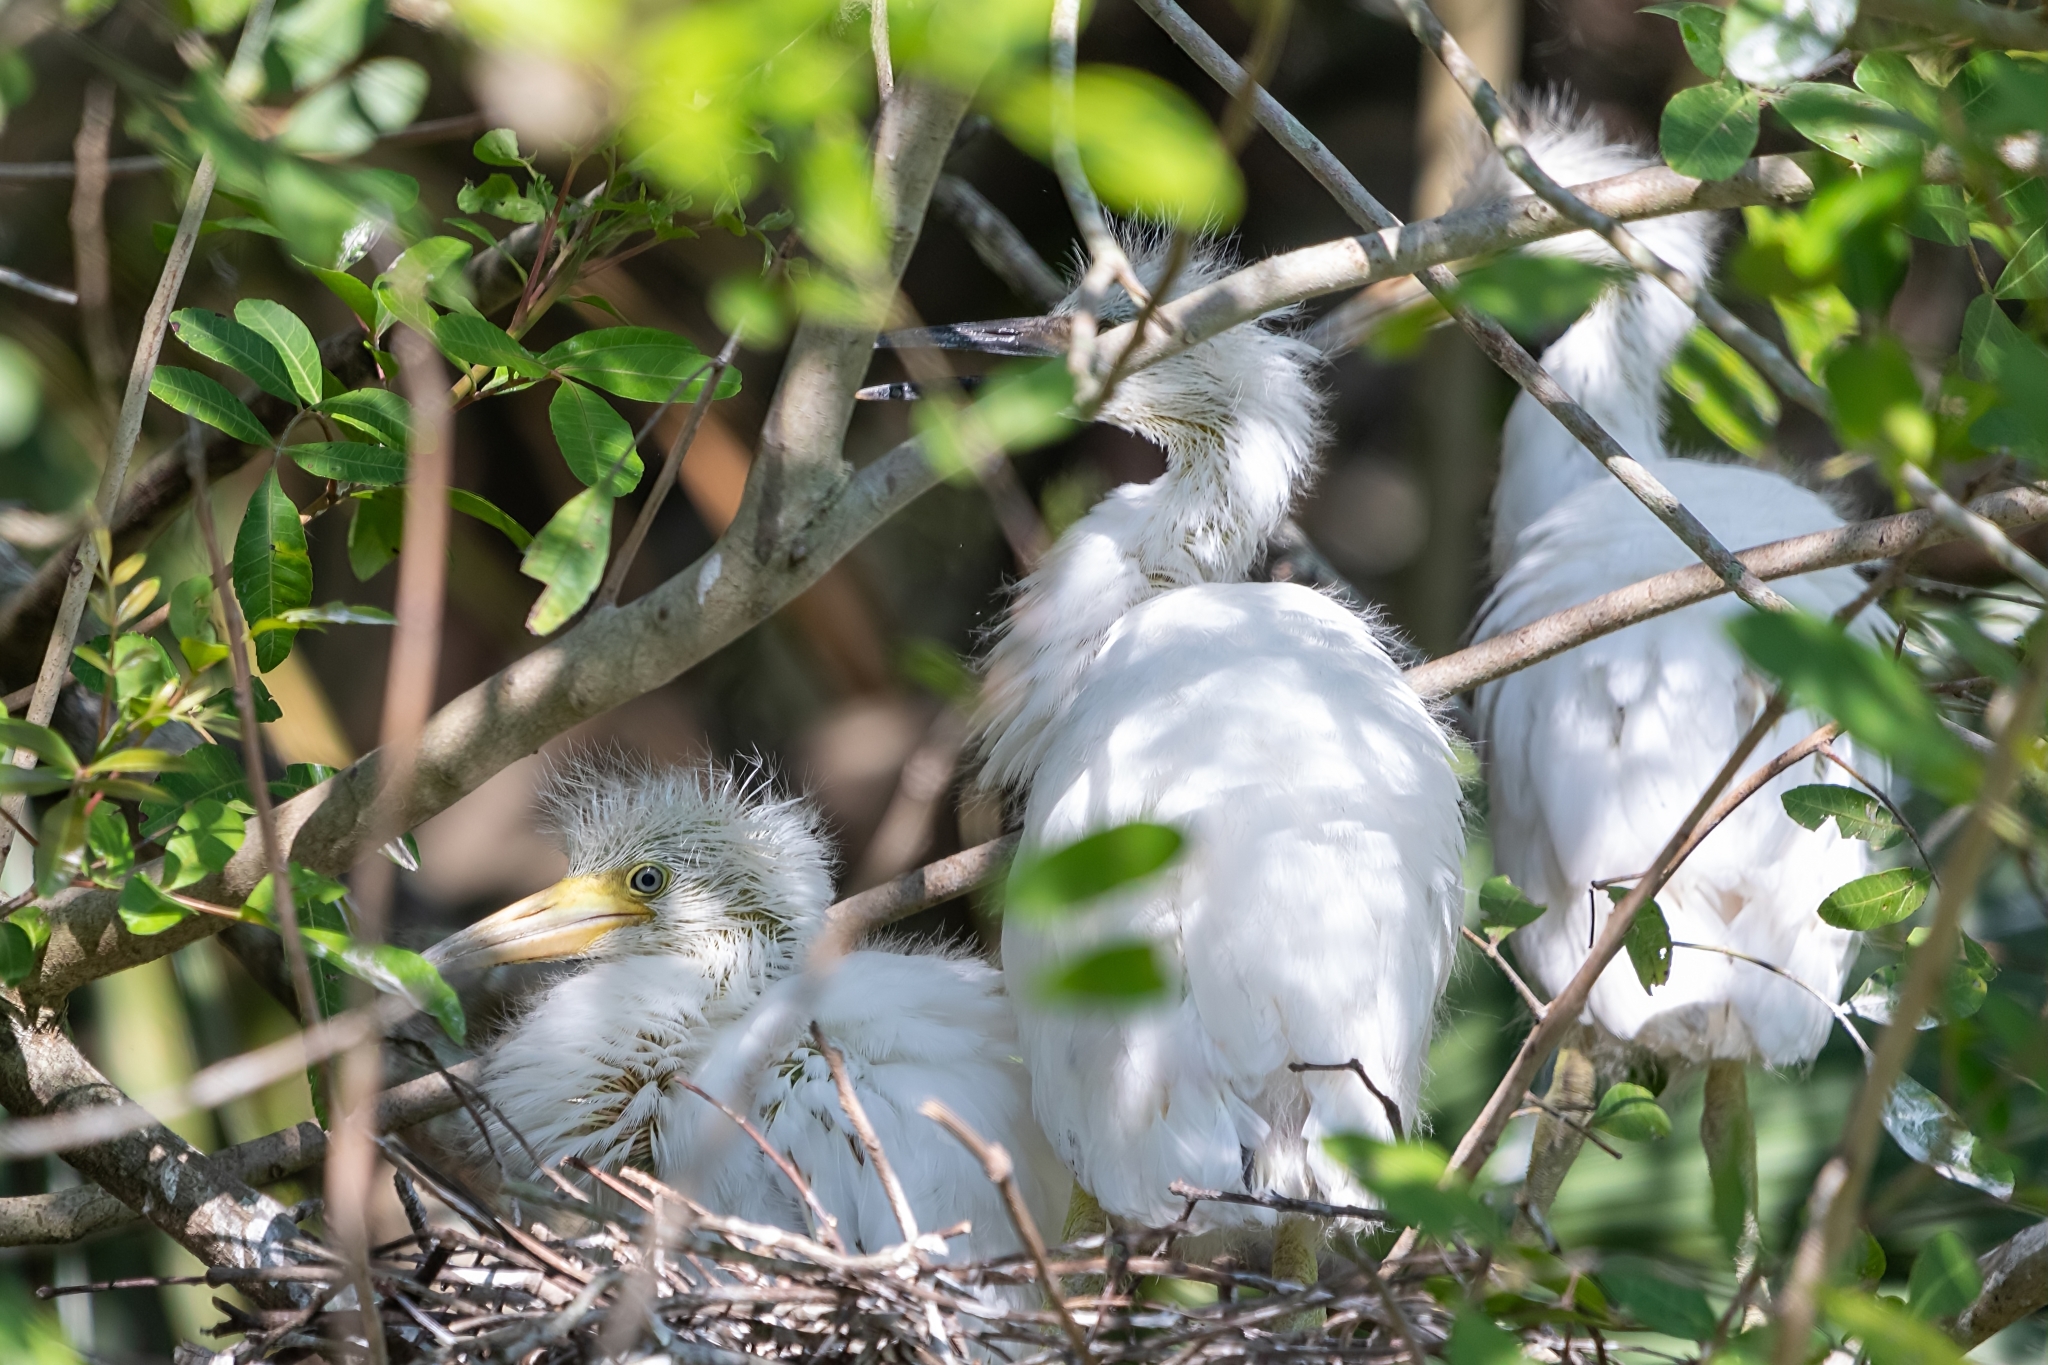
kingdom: Animalia
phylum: Chordata
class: Aves
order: Pelecaniformes
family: Ardeidae
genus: Egretta
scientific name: Egretta caerulea
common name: Little blue heron
